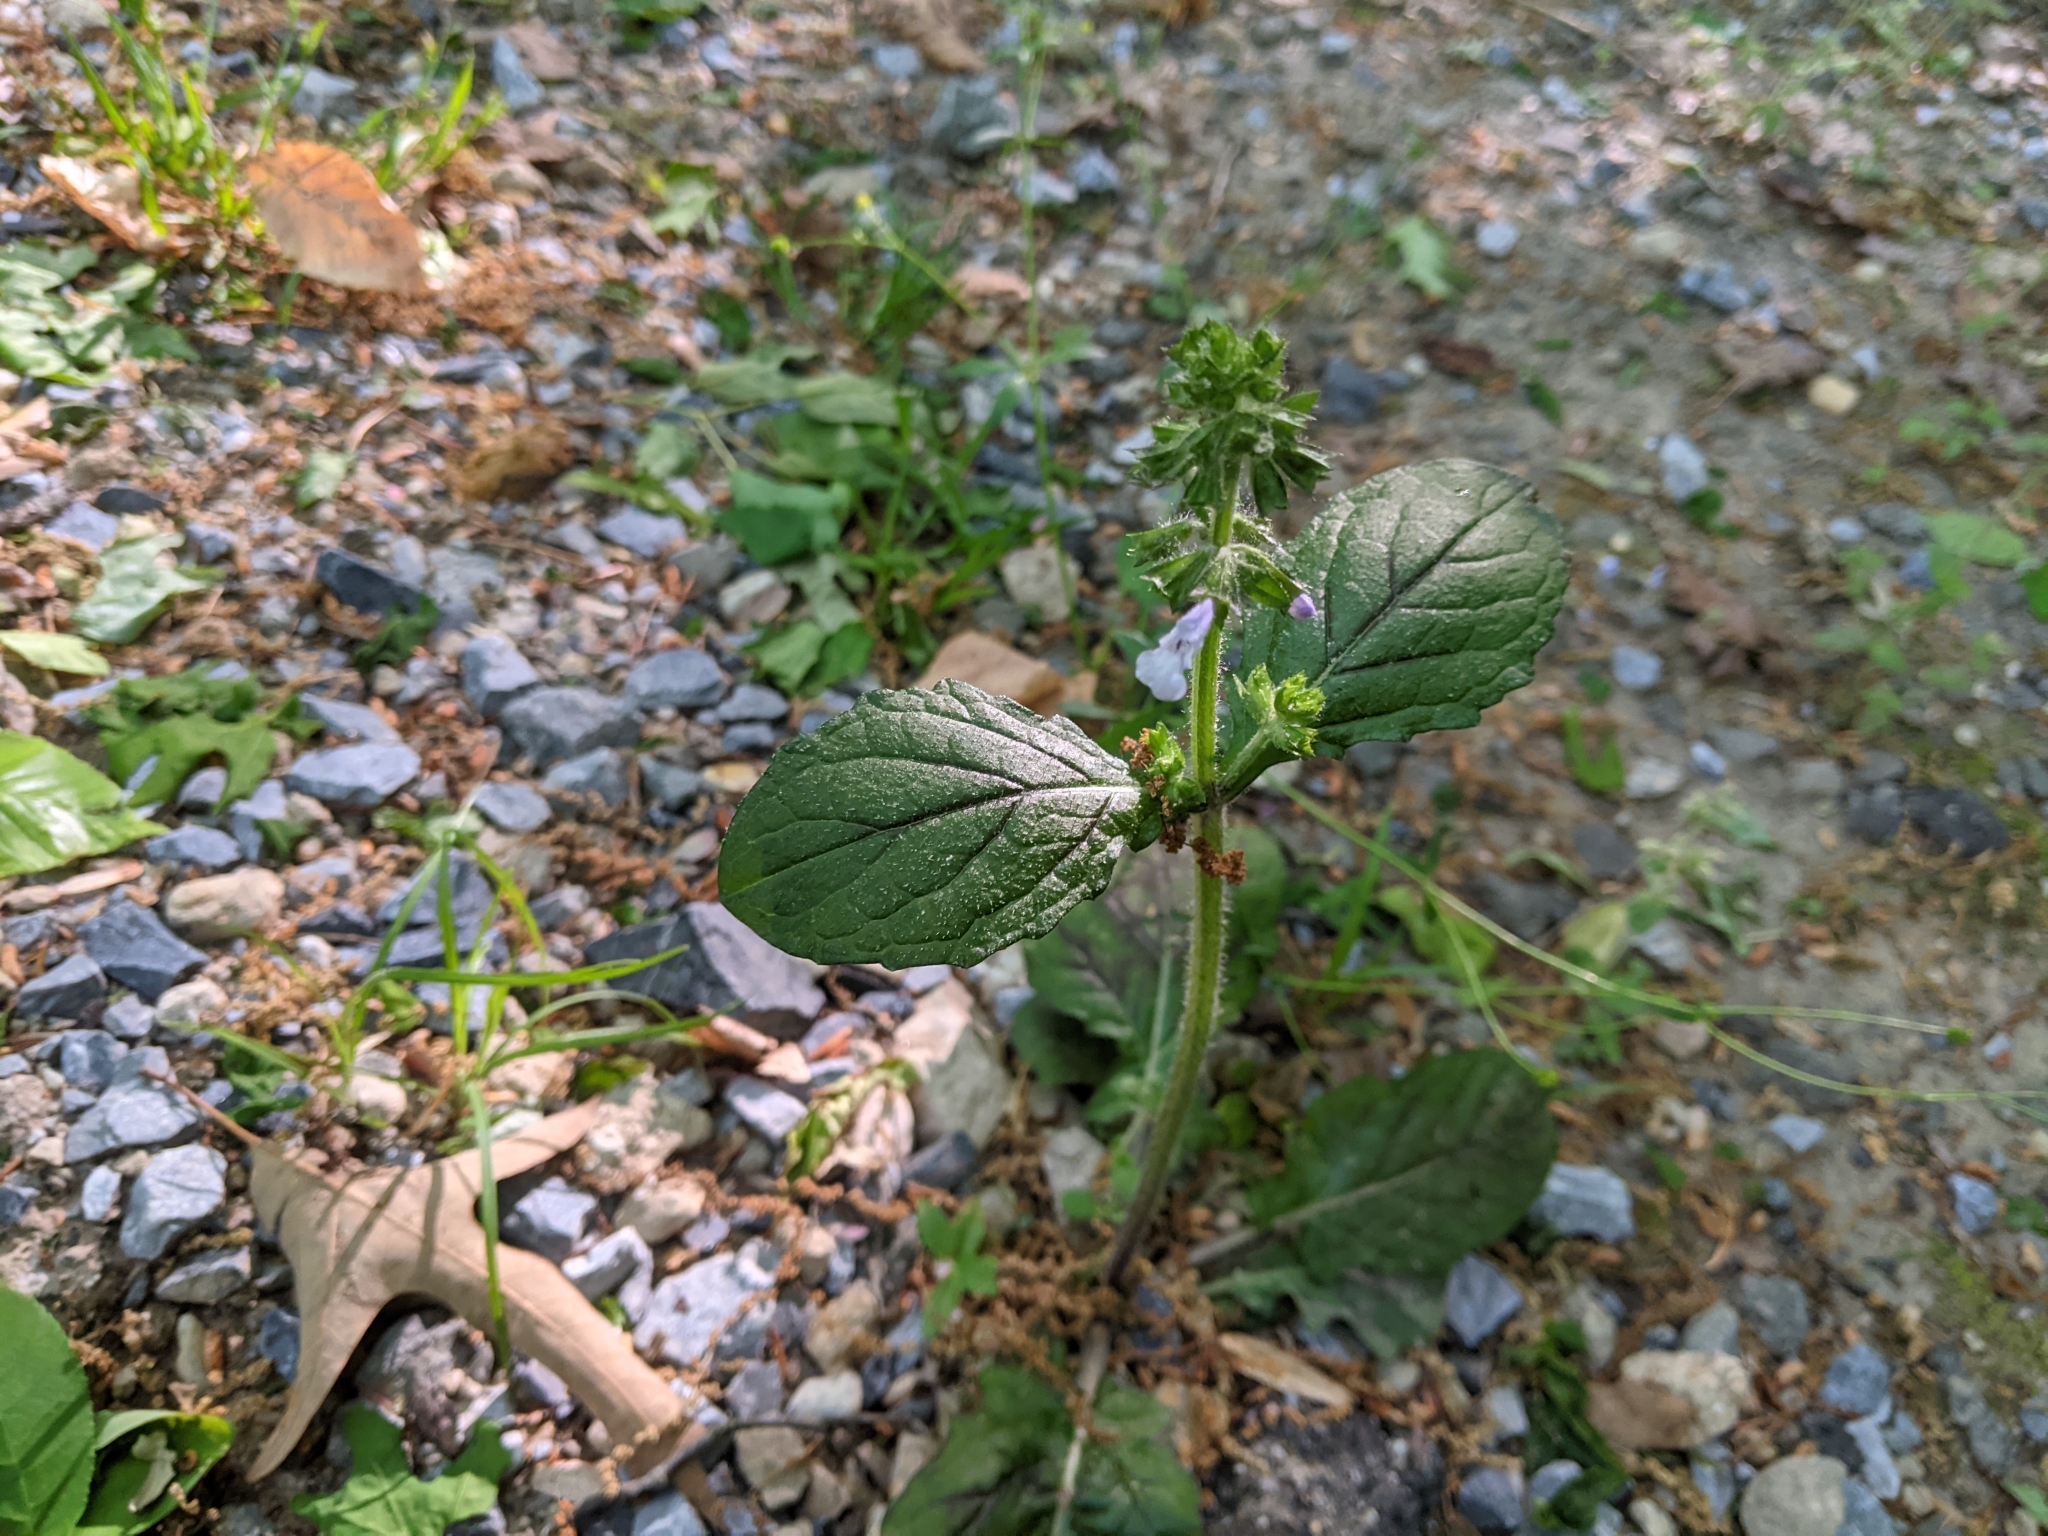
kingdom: Plantae
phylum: Tracheophyta
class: Magnoliopsida
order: Lamiales
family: Lamiaceae
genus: Salvia
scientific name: Salvia lyrata
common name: Cancerweed
